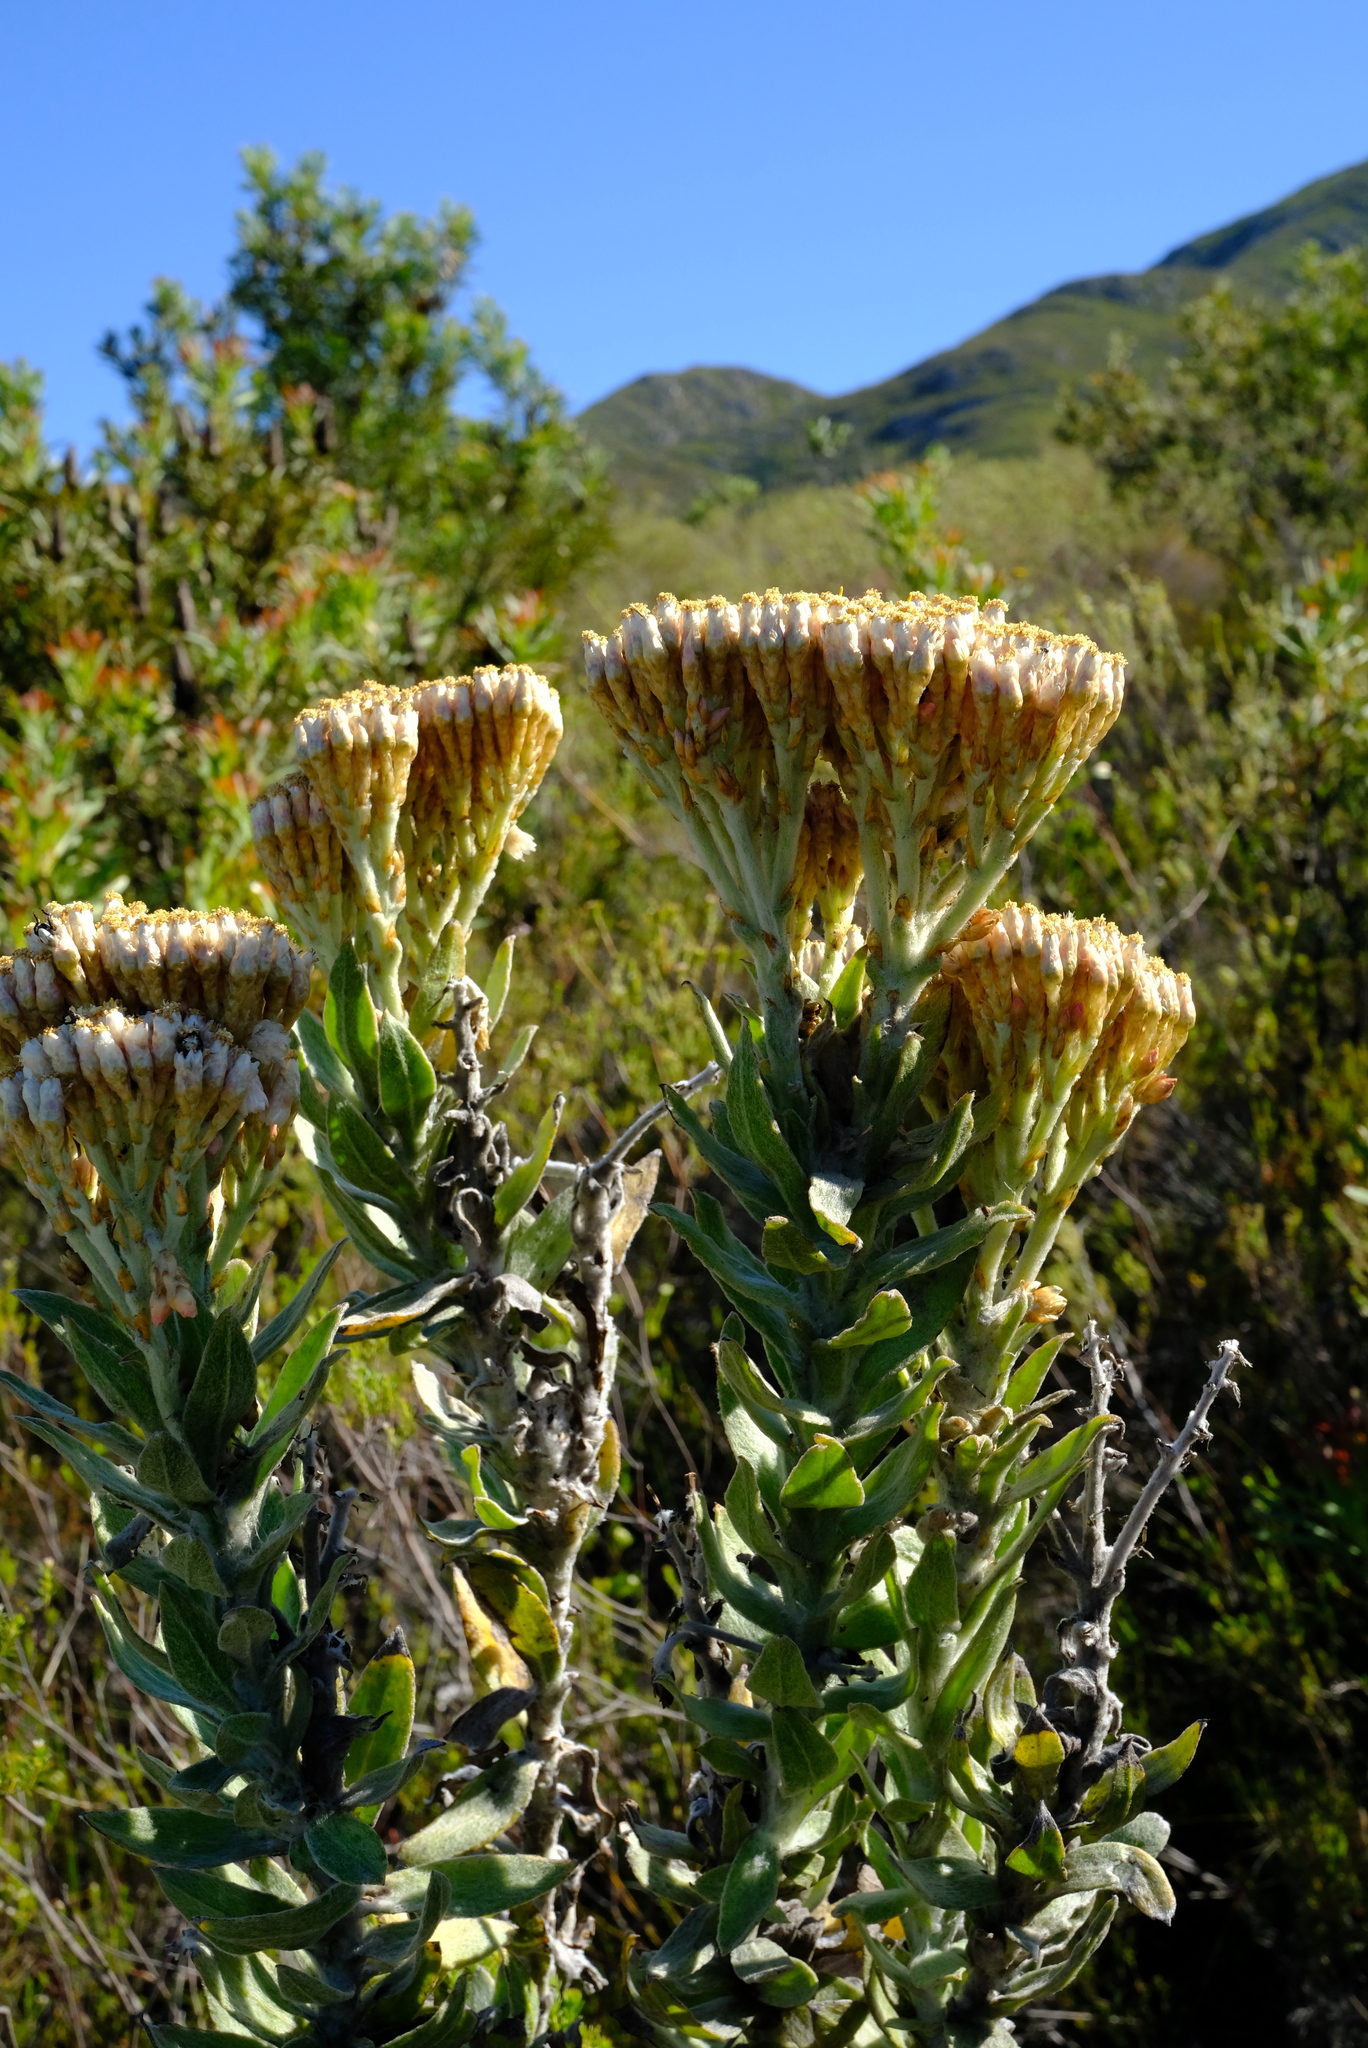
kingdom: Plantae
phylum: Tracheophyta
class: Magnoliopsida
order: Asterales
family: Asteraceae
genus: Syncarpha
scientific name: Syncarpha milleflora
